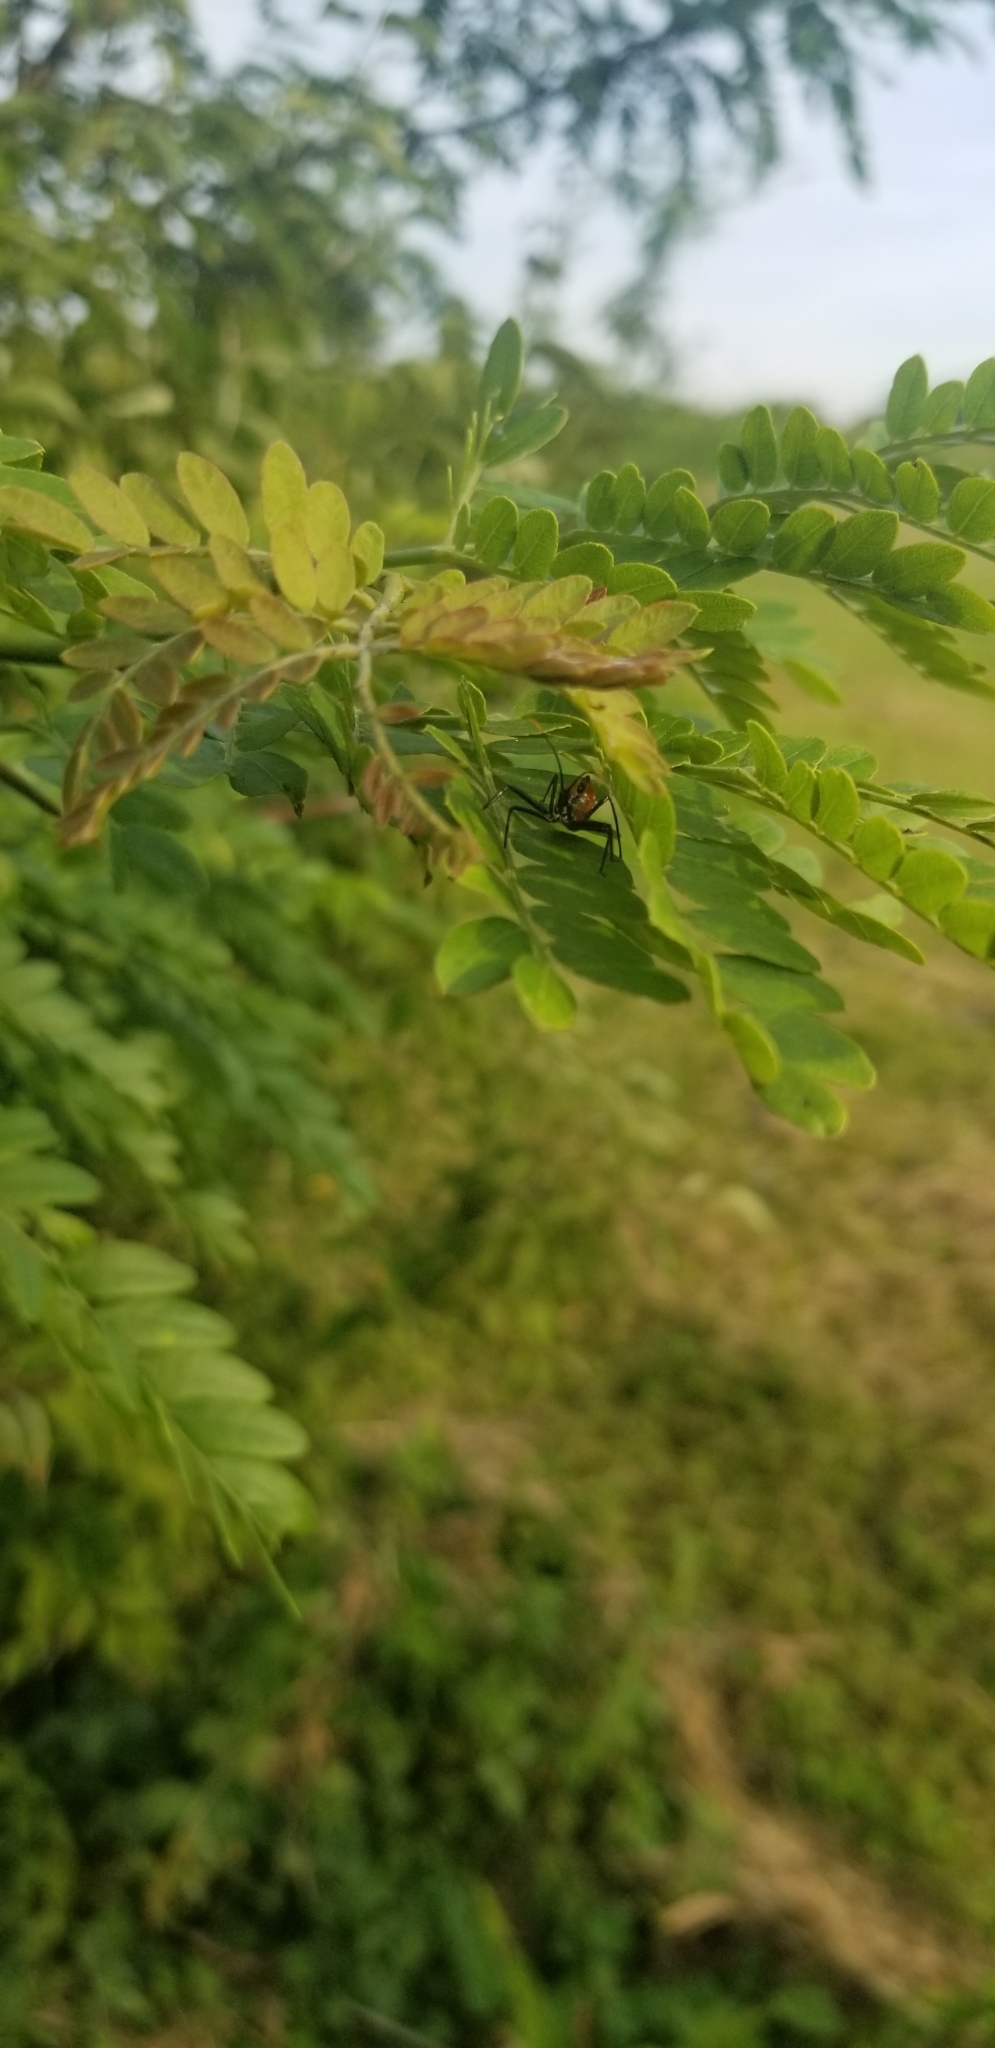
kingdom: Animalia
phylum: Arthropoda
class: Insecta
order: Hemiptera
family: Reduviidae
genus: Arilus
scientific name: Arilus cristatus
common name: North american wheel bug
